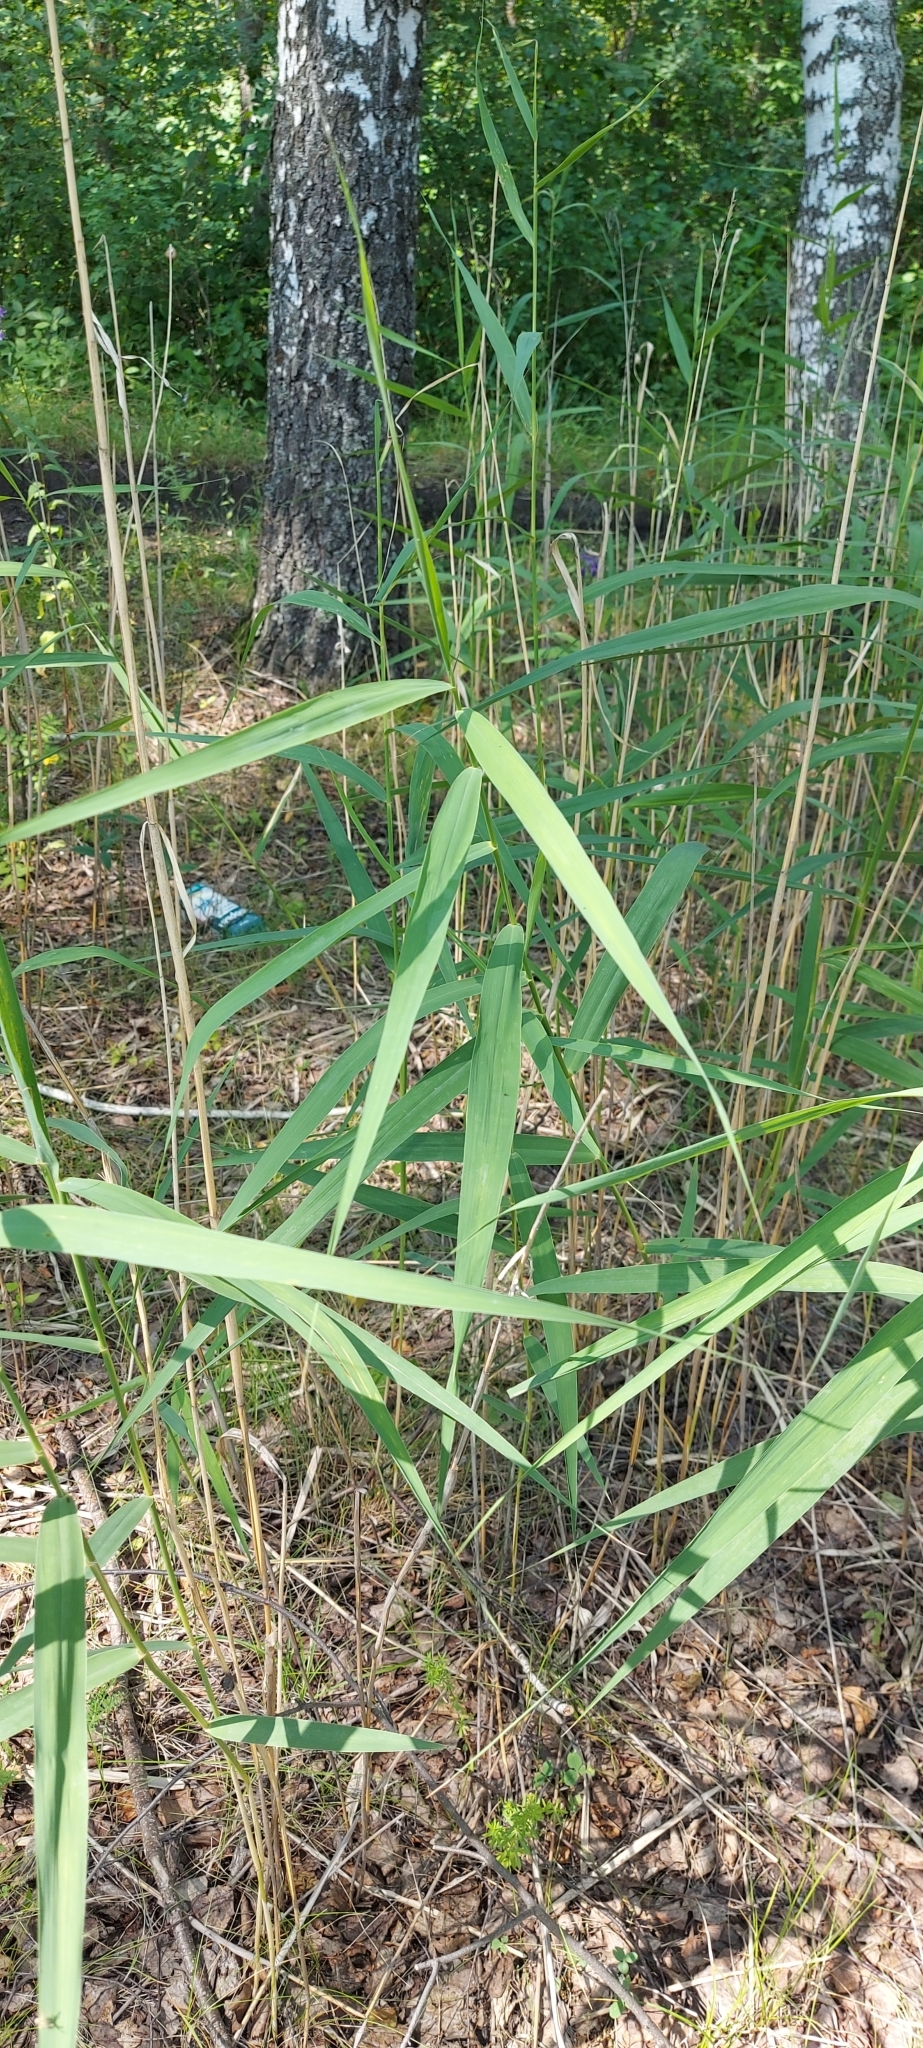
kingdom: Plantae
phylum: Tracheophyta
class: Liliopsida
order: Poales
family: Poaceae
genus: Phragmites
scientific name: Phragmites australis
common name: Common reed
